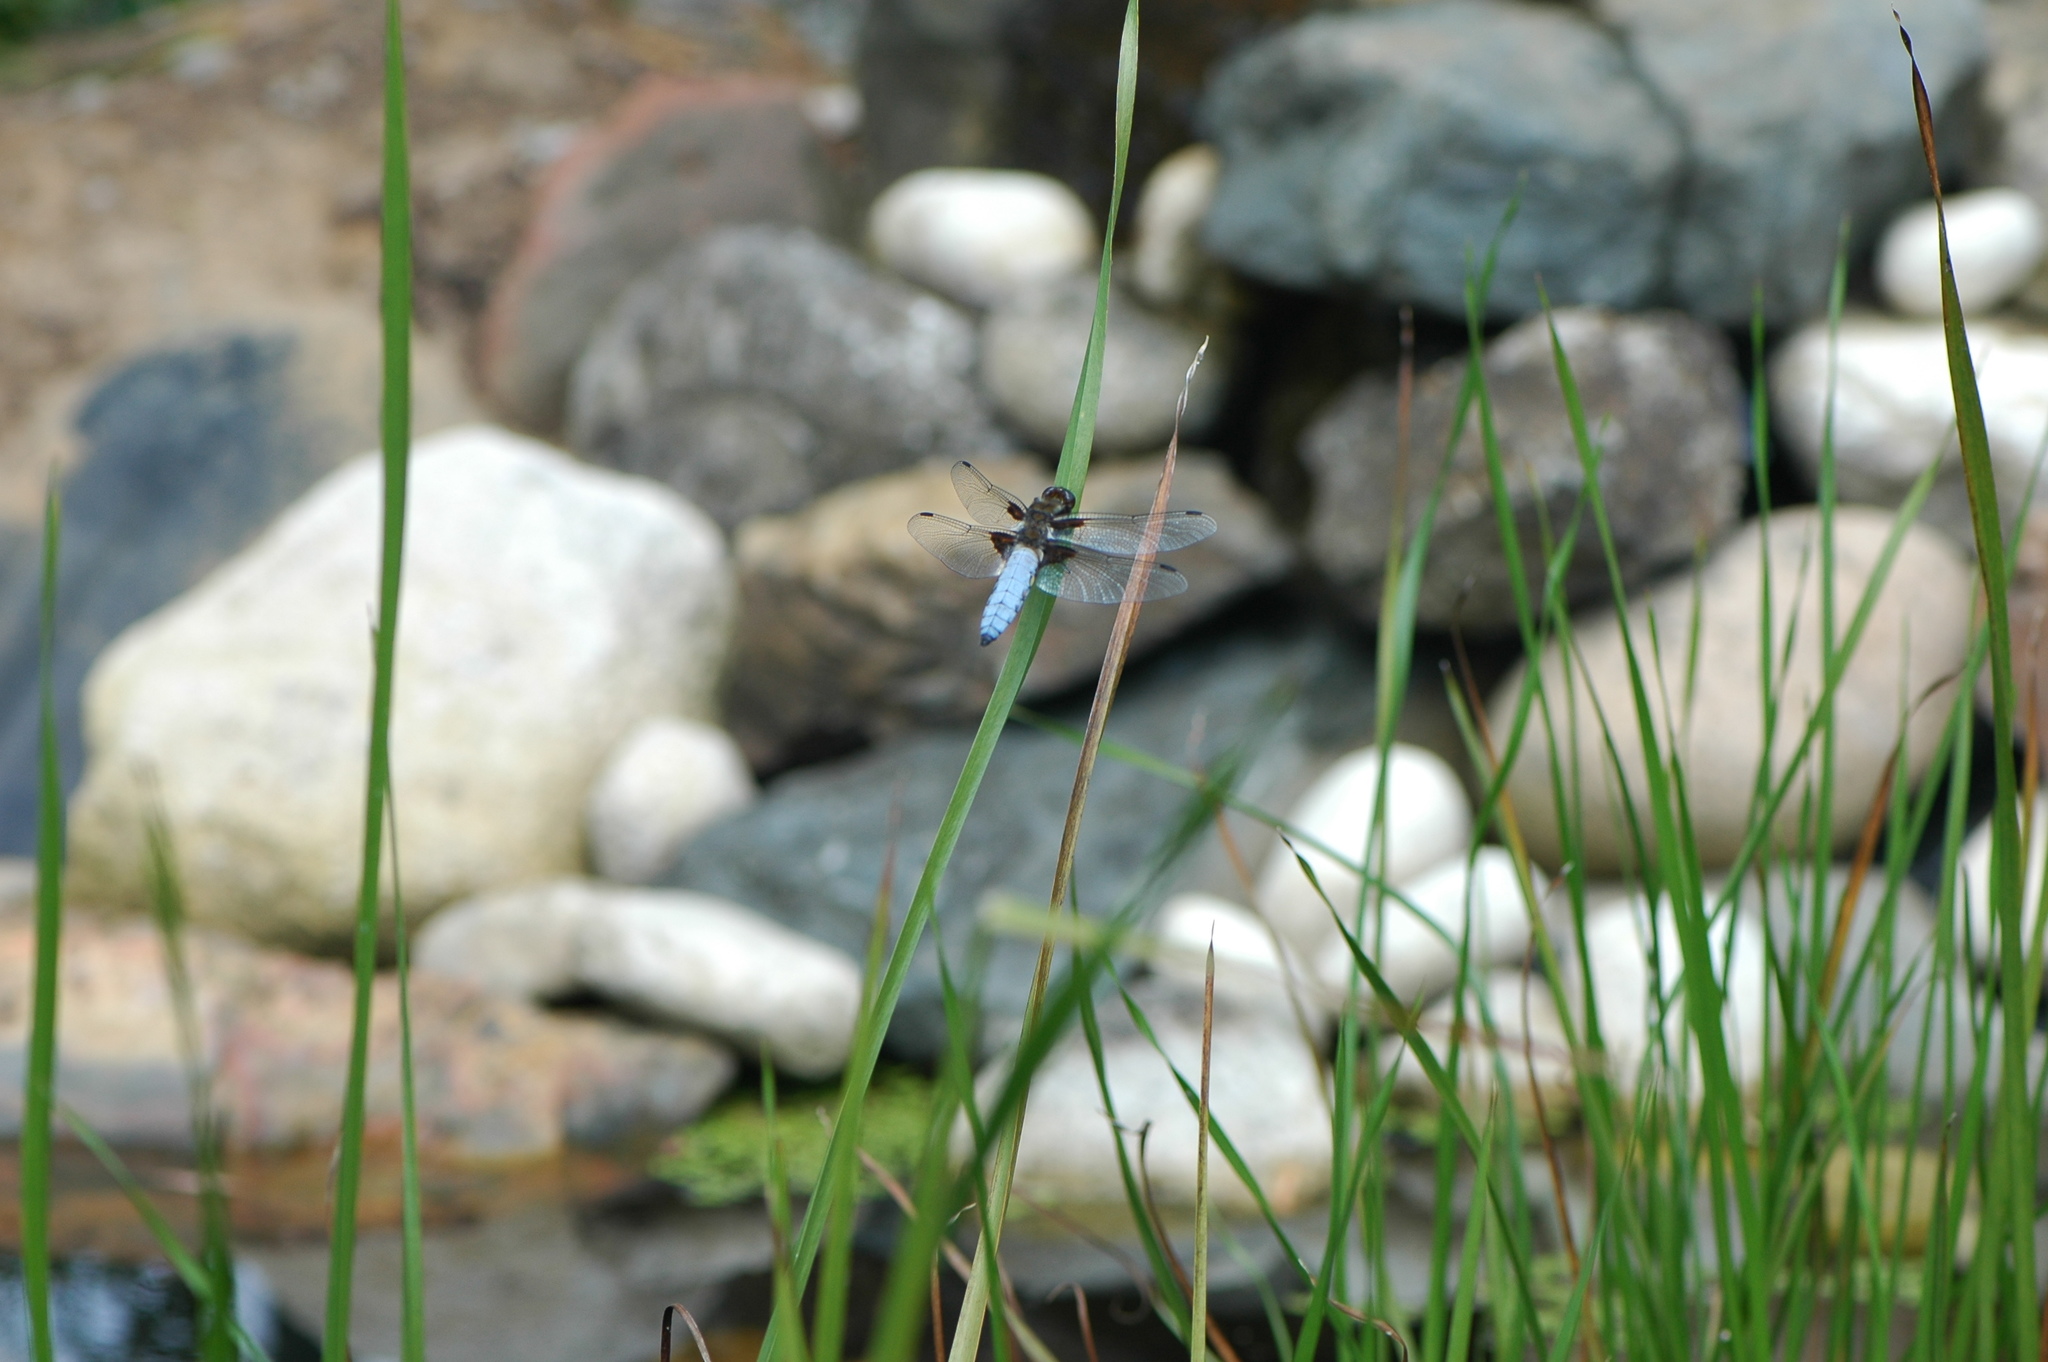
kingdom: Animalia
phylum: Arthropoda
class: Insecta
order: Odonata
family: Libellulidae
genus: Libellula
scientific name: Libellula depressa
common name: Broad-bodied chaser
